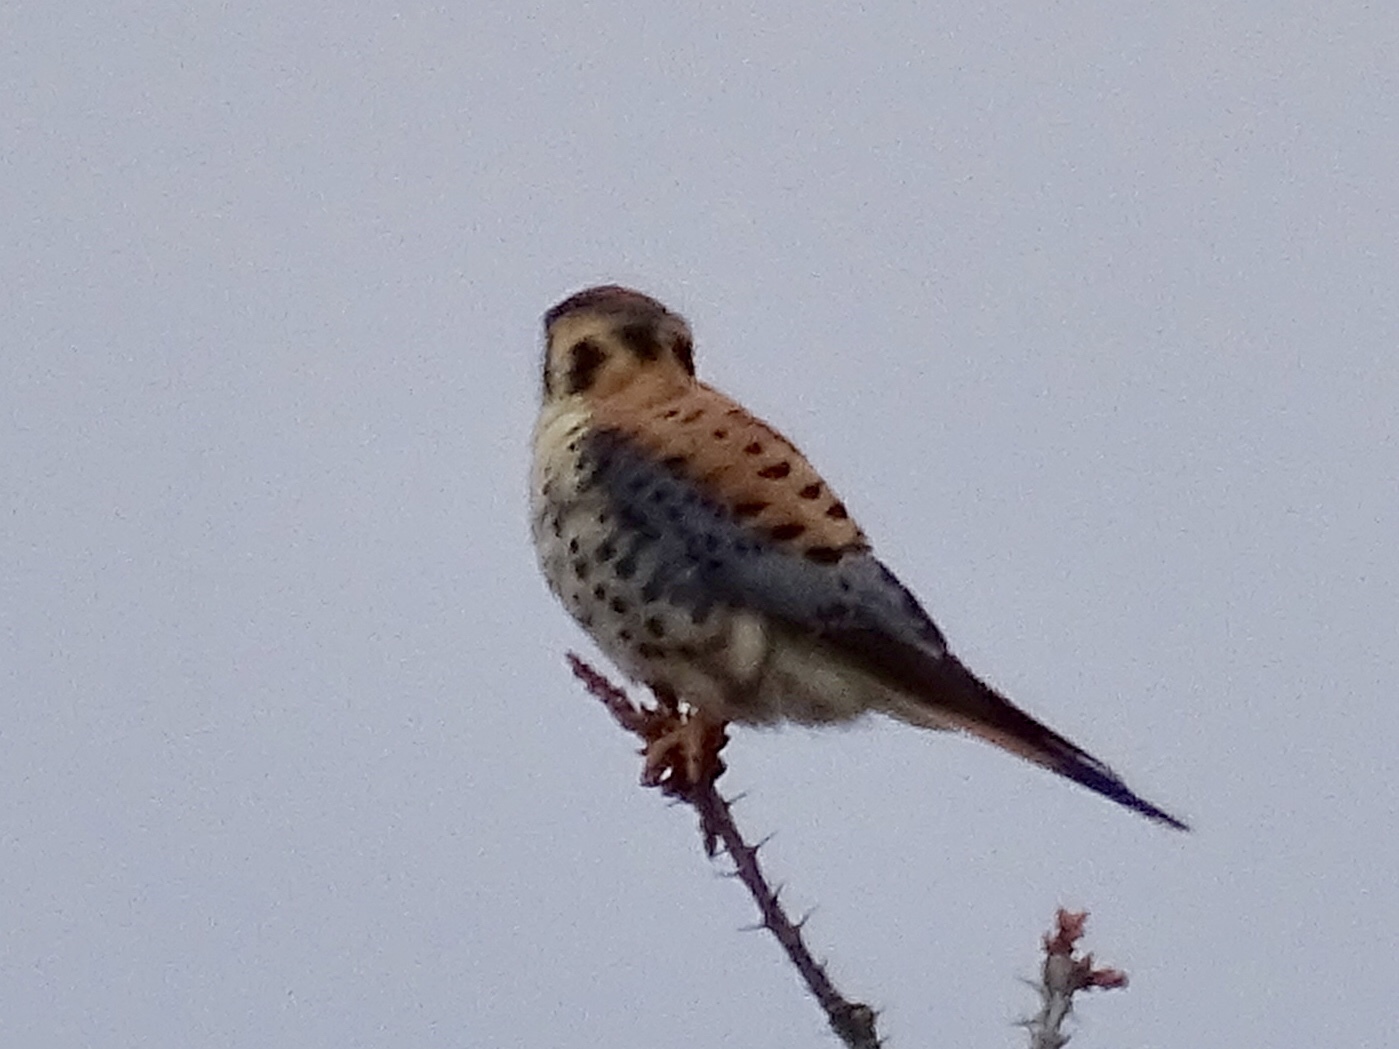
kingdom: Animalia
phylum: Chordata
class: Aves
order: Falconiformes
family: Falconidae
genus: Falco
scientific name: Falco sparverius
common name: American kestrel
